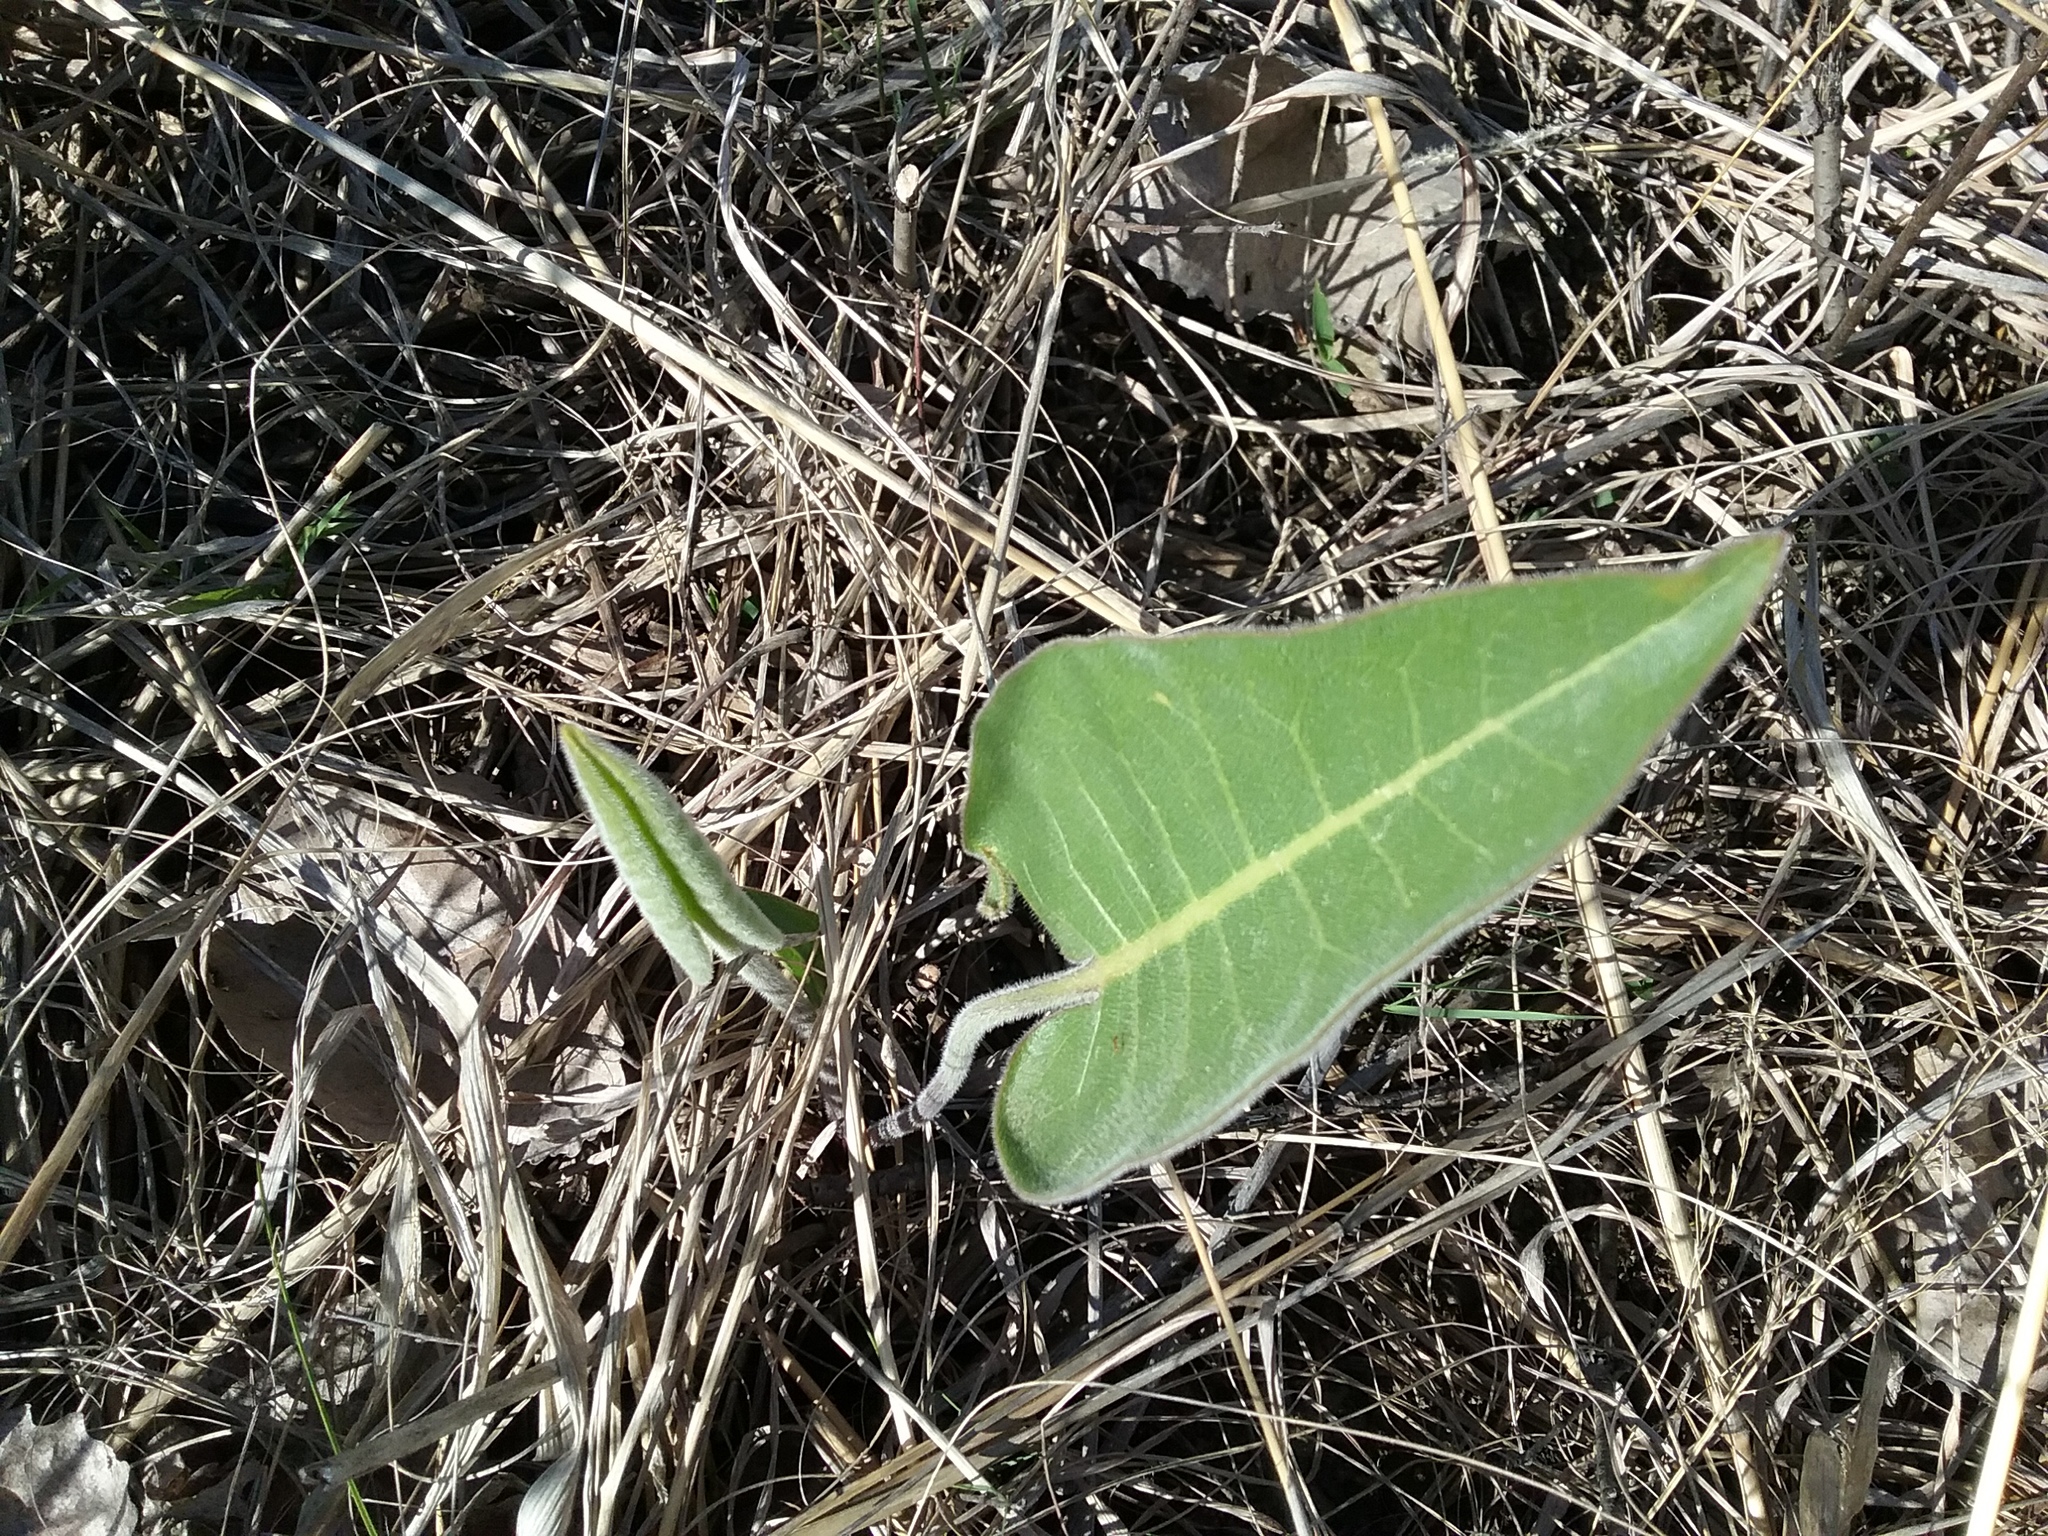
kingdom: Plantae
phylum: Tracheophyta
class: Magnoliopsida
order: Asterales
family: Asteraceae
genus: Silphium
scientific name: Silphium terebinthinaceum
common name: Basal-leaf rosinweed
